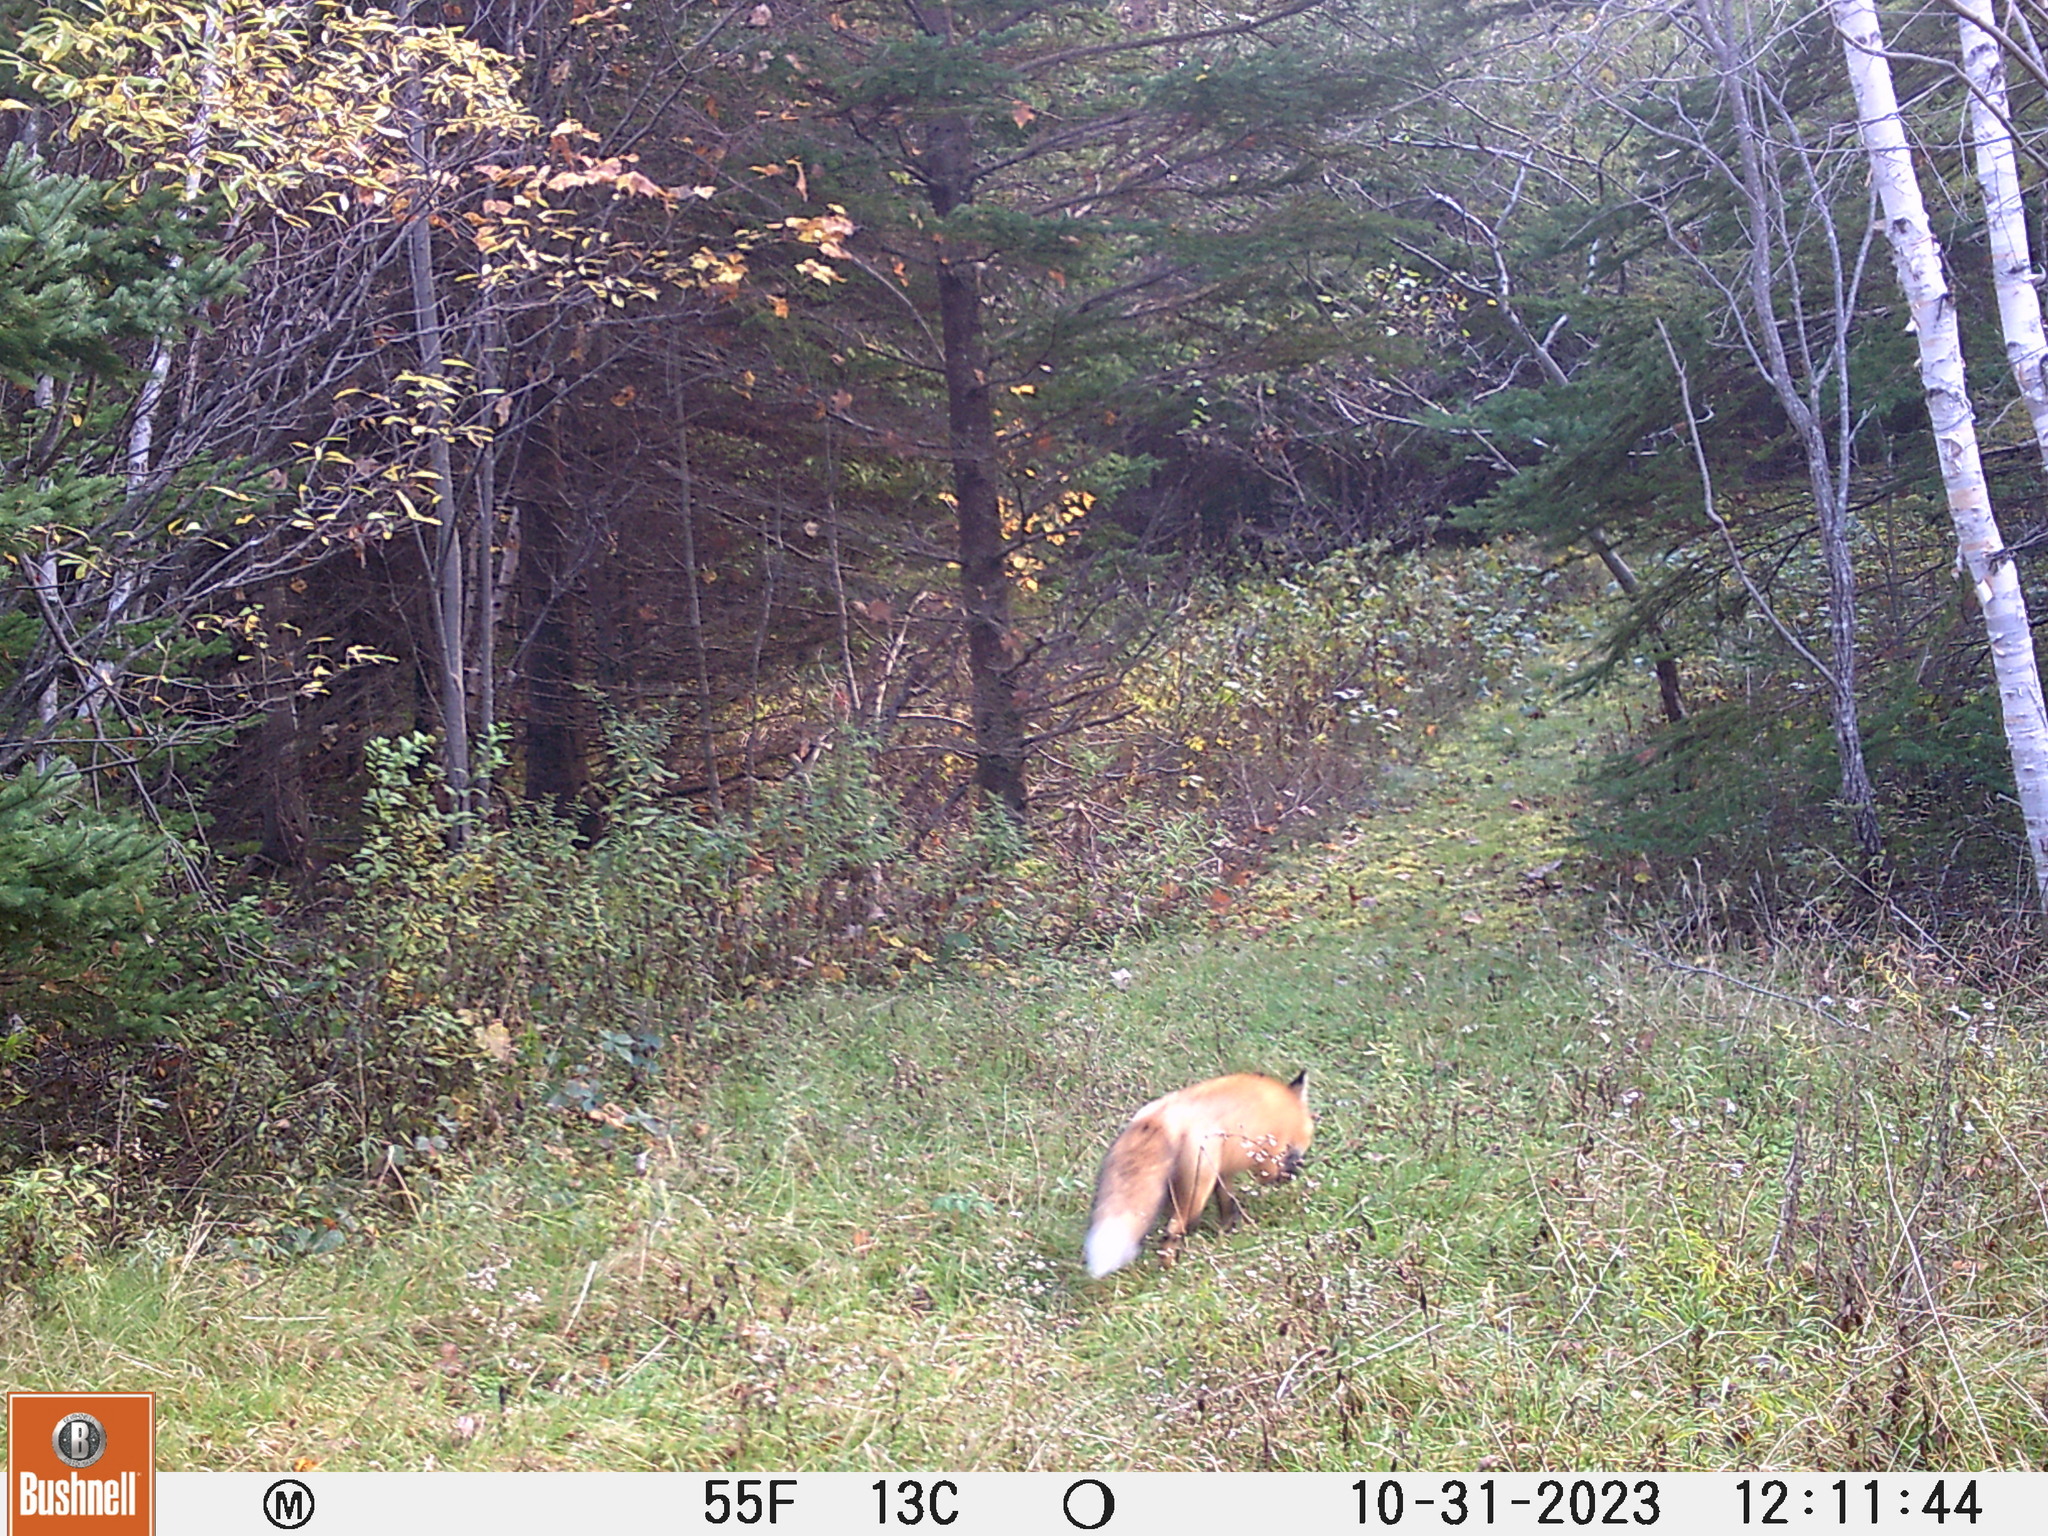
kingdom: Animalia
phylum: Chordata
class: Mammalia
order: Carnivora
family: Canidae
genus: Vulpes
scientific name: Vulpes vulpes
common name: Red fox
